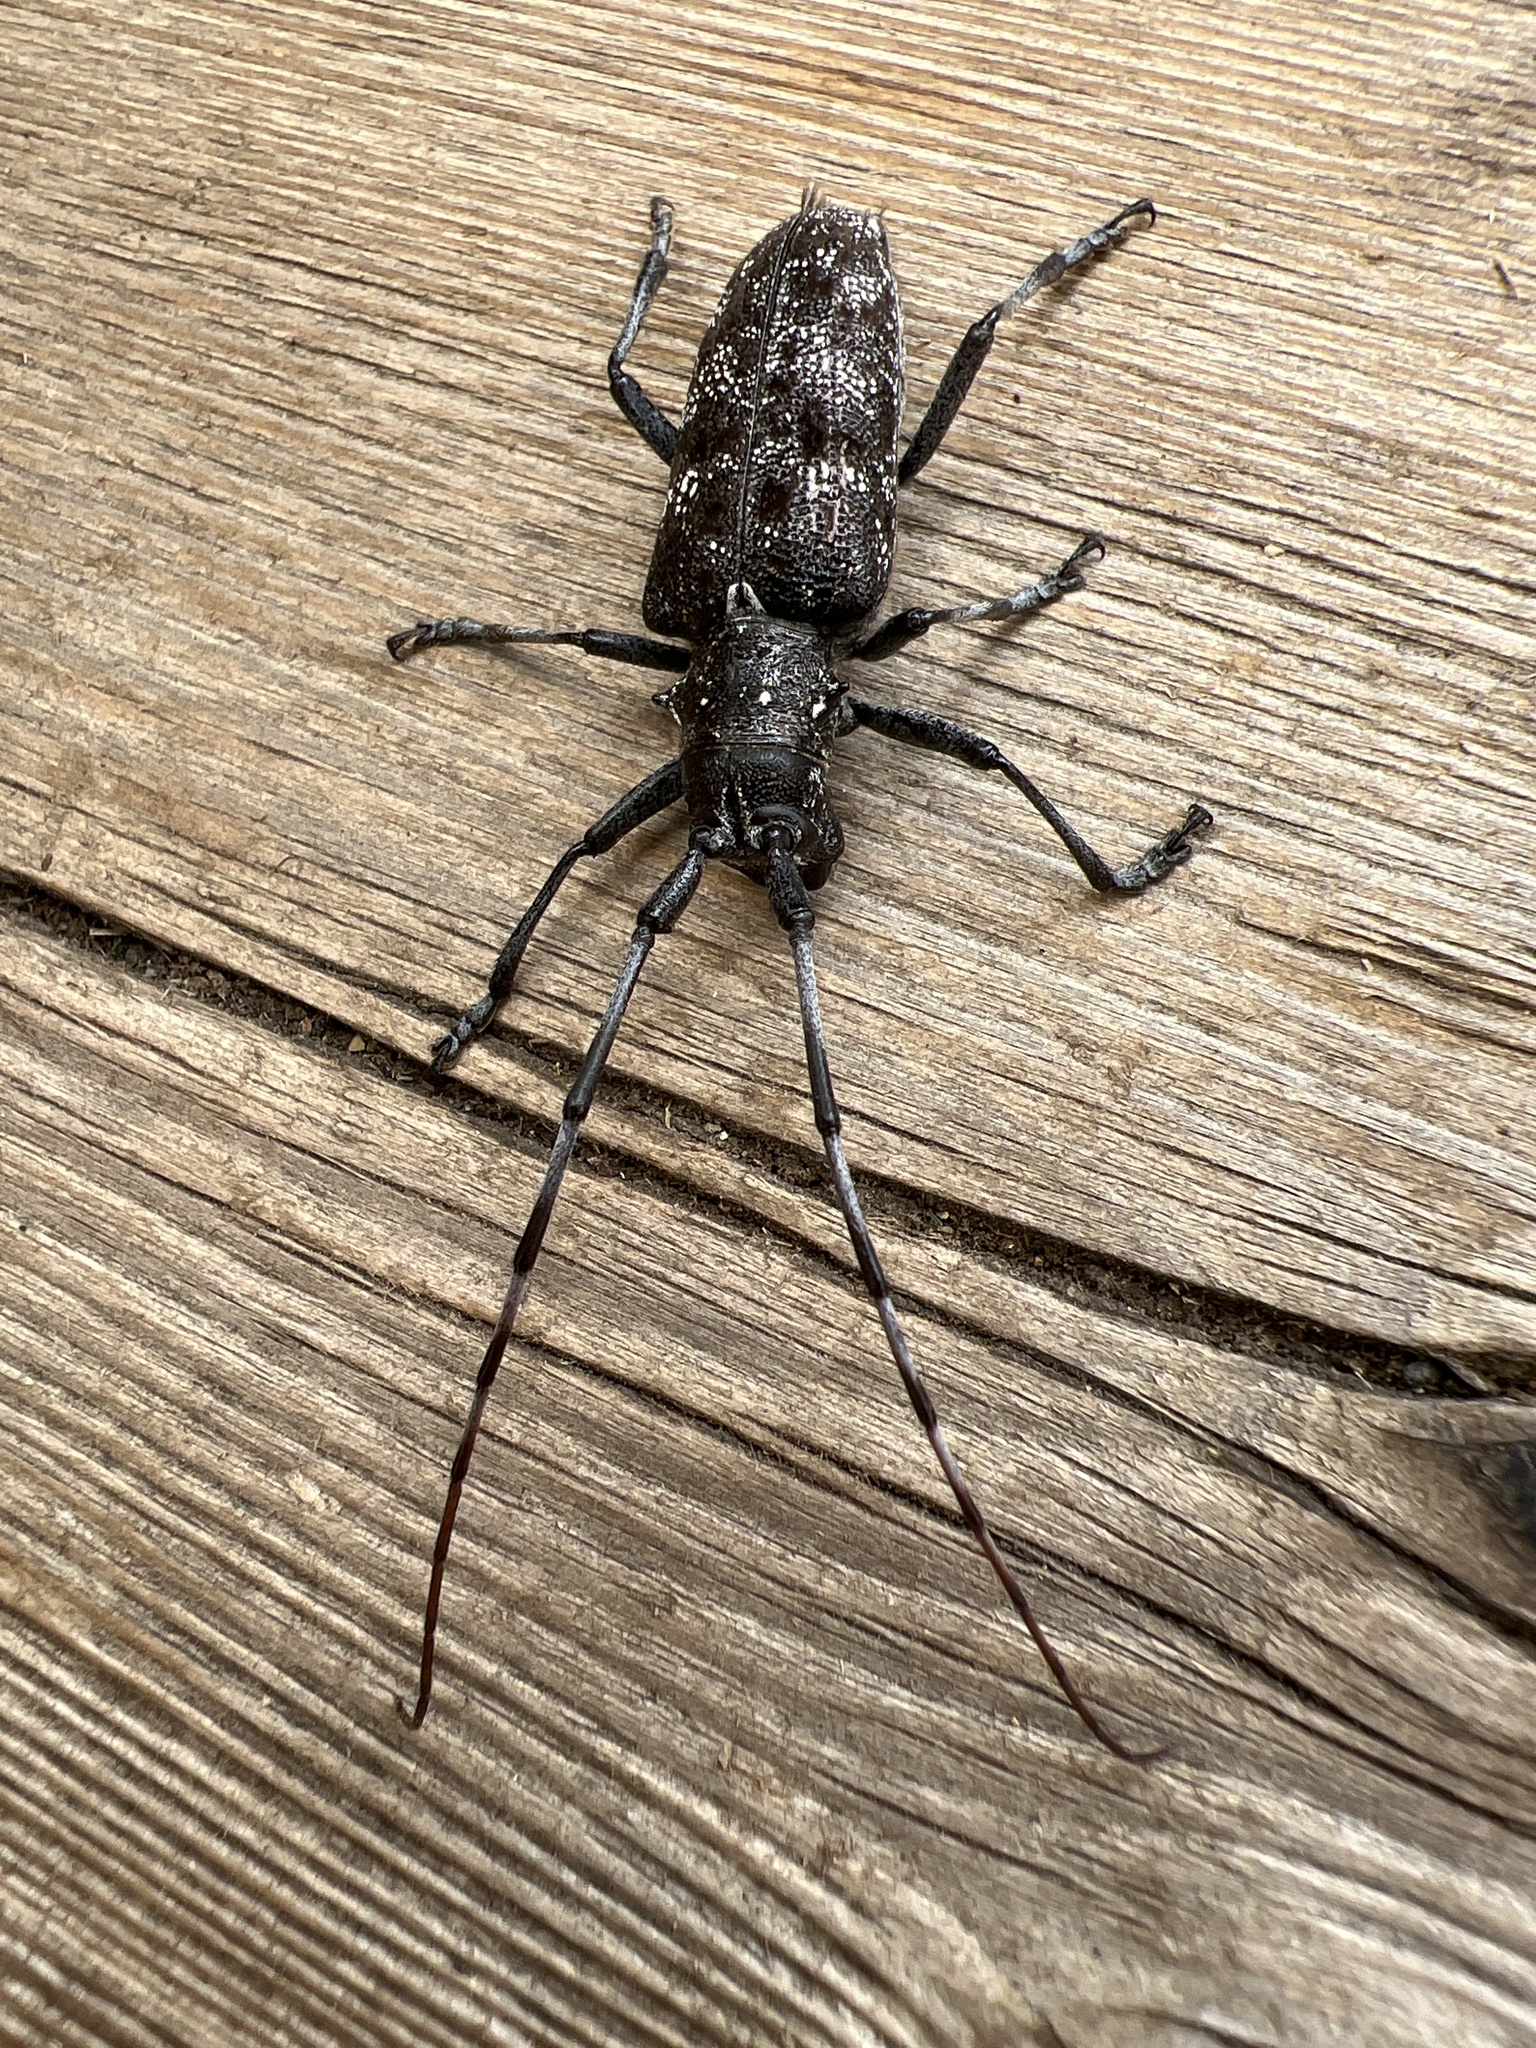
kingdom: Animalia
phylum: Arthropoda
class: Insecta
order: Coleoptera
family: Cerambycidae
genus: Monochamus
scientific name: Monochamus clamator
